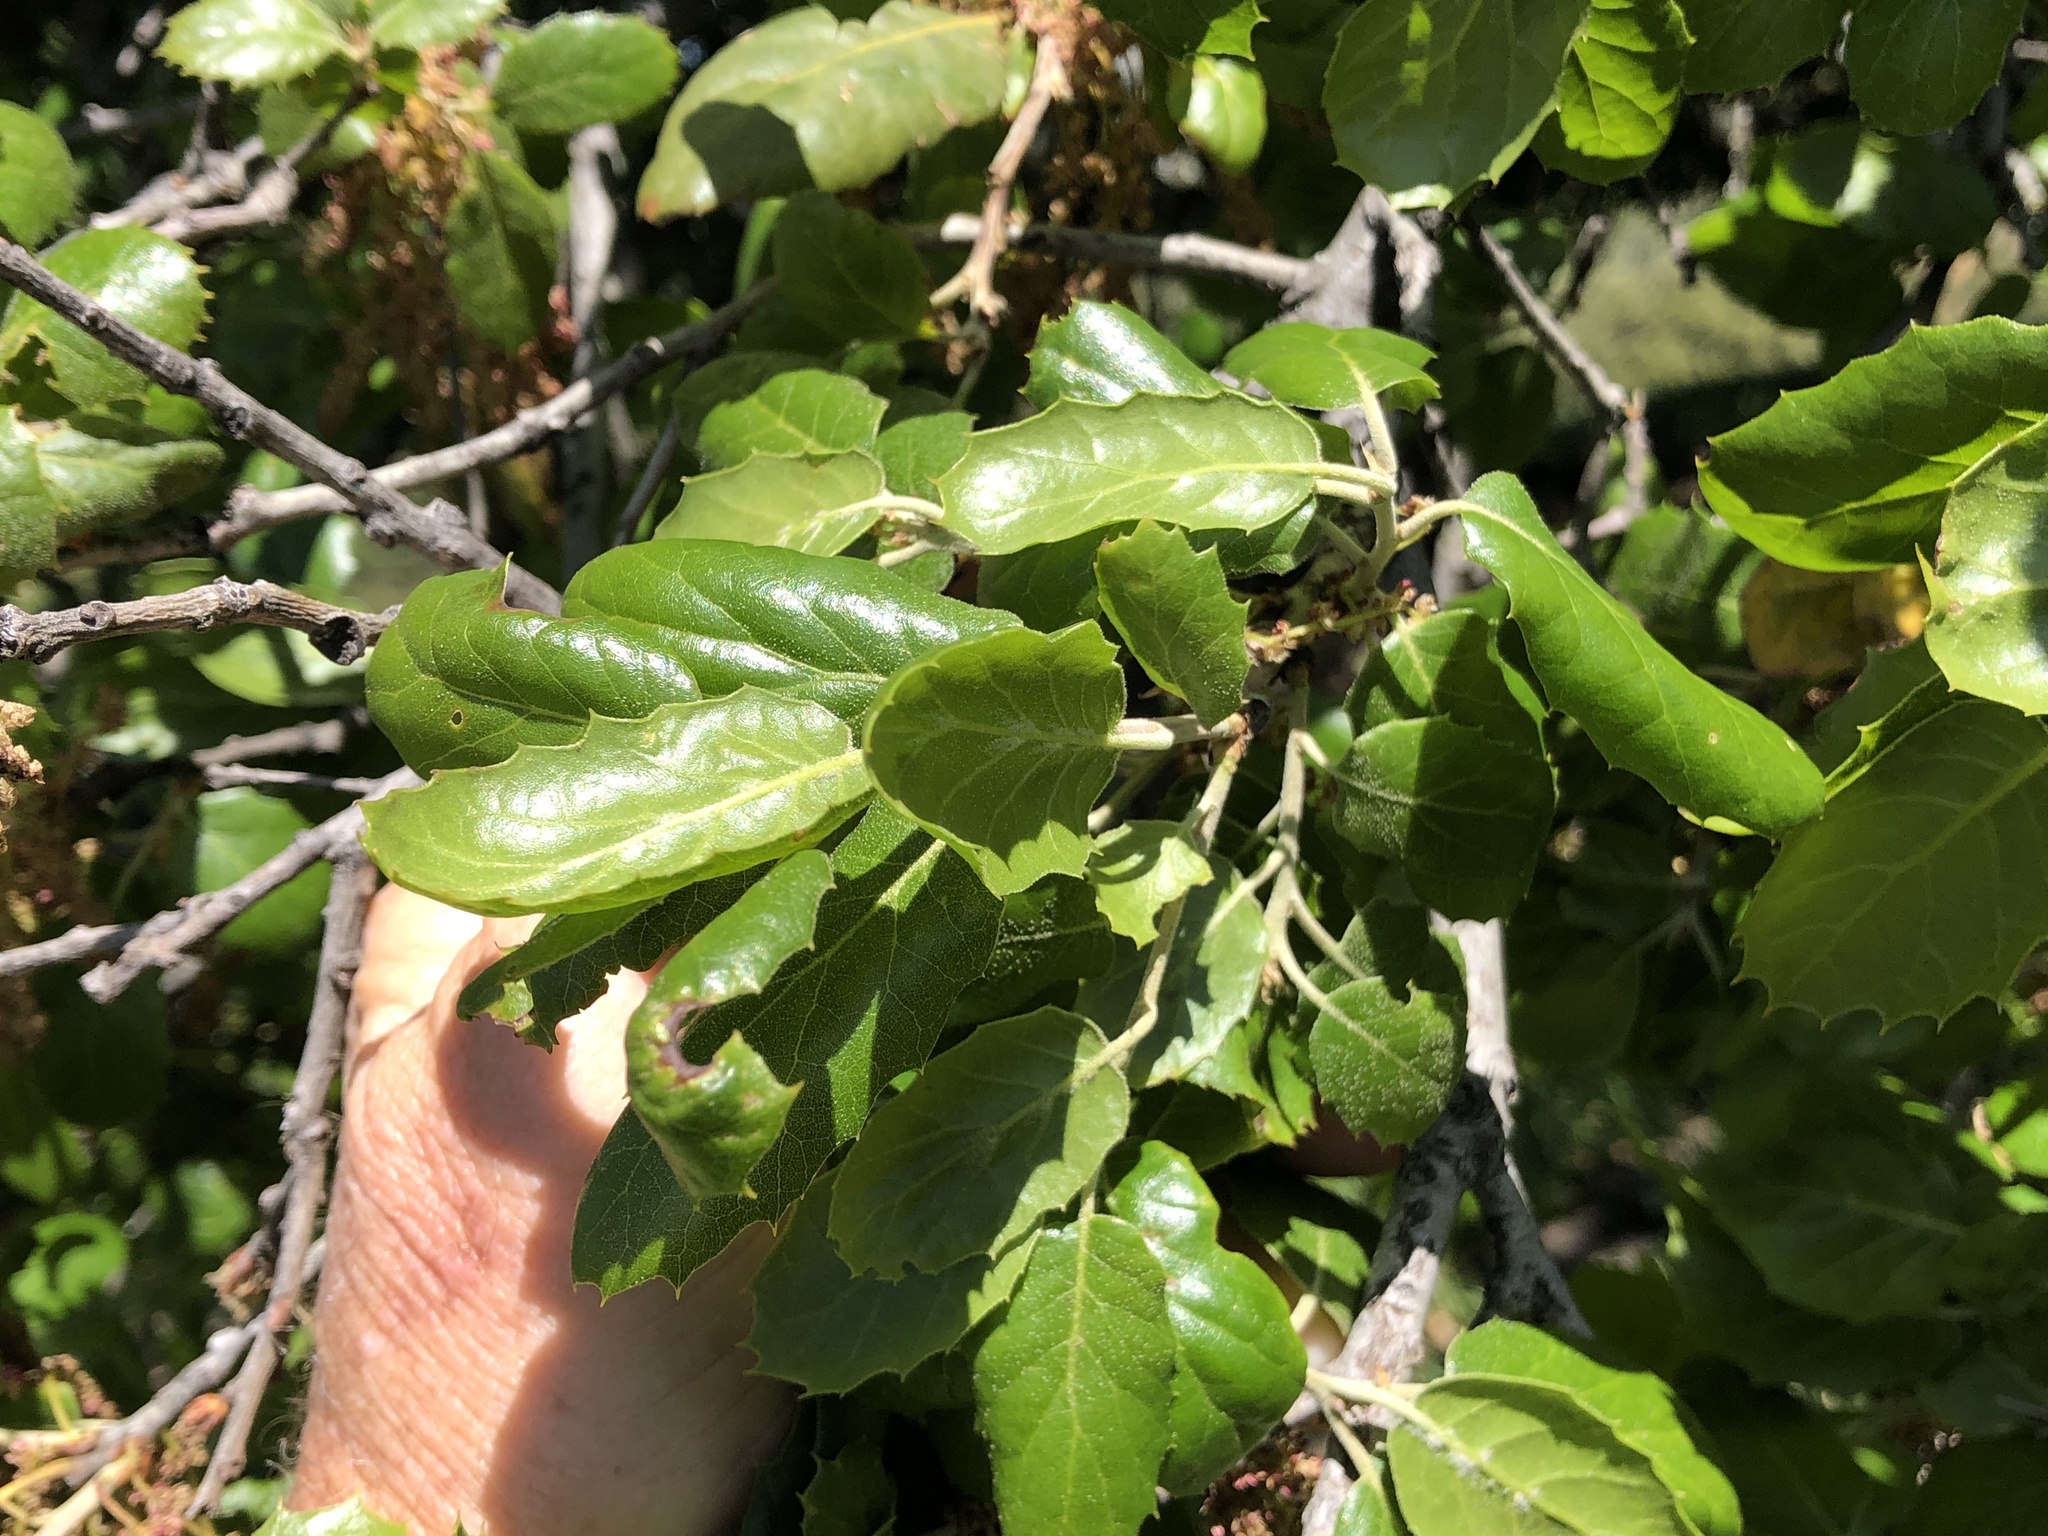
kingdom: Plantae
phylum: Tracheophyta
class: Magnoliopsida
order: Fagales
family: Fagaceae
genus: Quercus
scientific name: Quercus agrifolia
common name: California live oak
